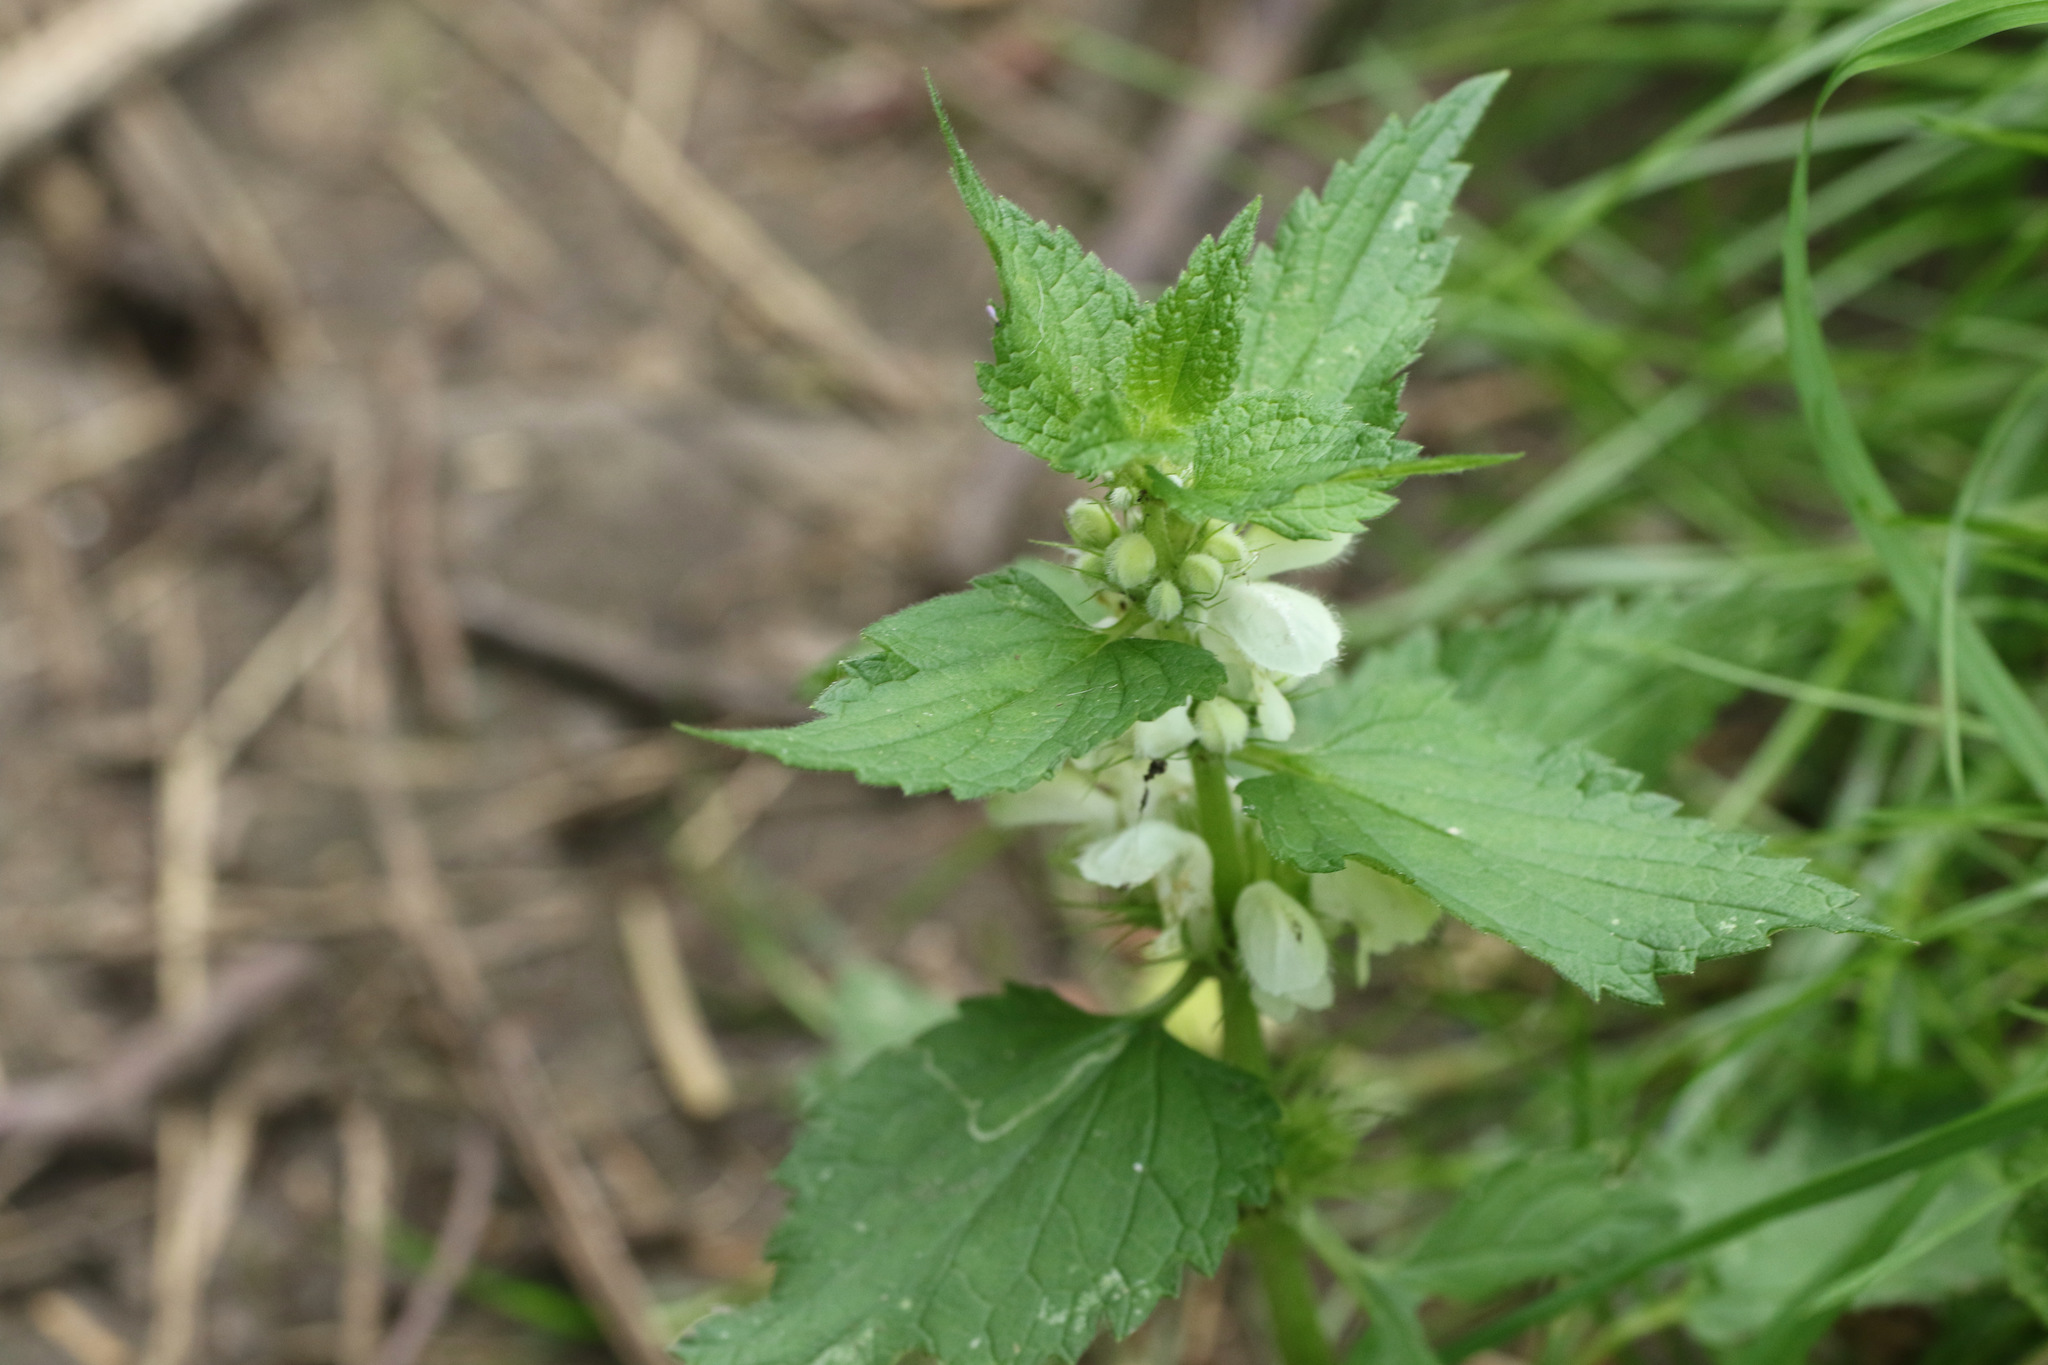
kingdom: Plantae
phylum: Tracheophyta
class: Magnoliopsida
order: Lamiales
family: Lamiaceae
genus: Lamium
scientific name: Lamium album
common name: White dead-nettle
